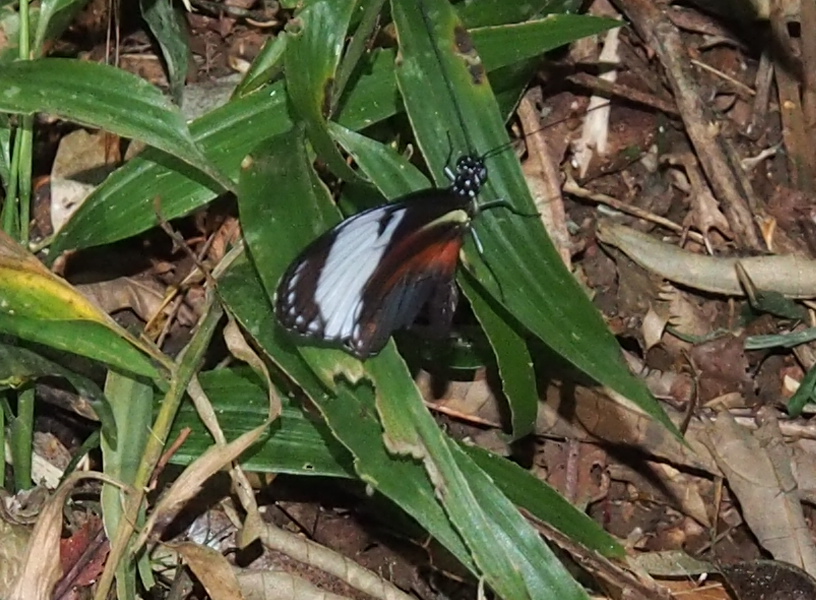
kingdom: Animalia
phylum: Arthropoda
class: Insecta
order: Lepidoptera
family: Nymphalidae
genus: Heliconius
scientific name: Heliconius cydno
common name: Cydno longwing
